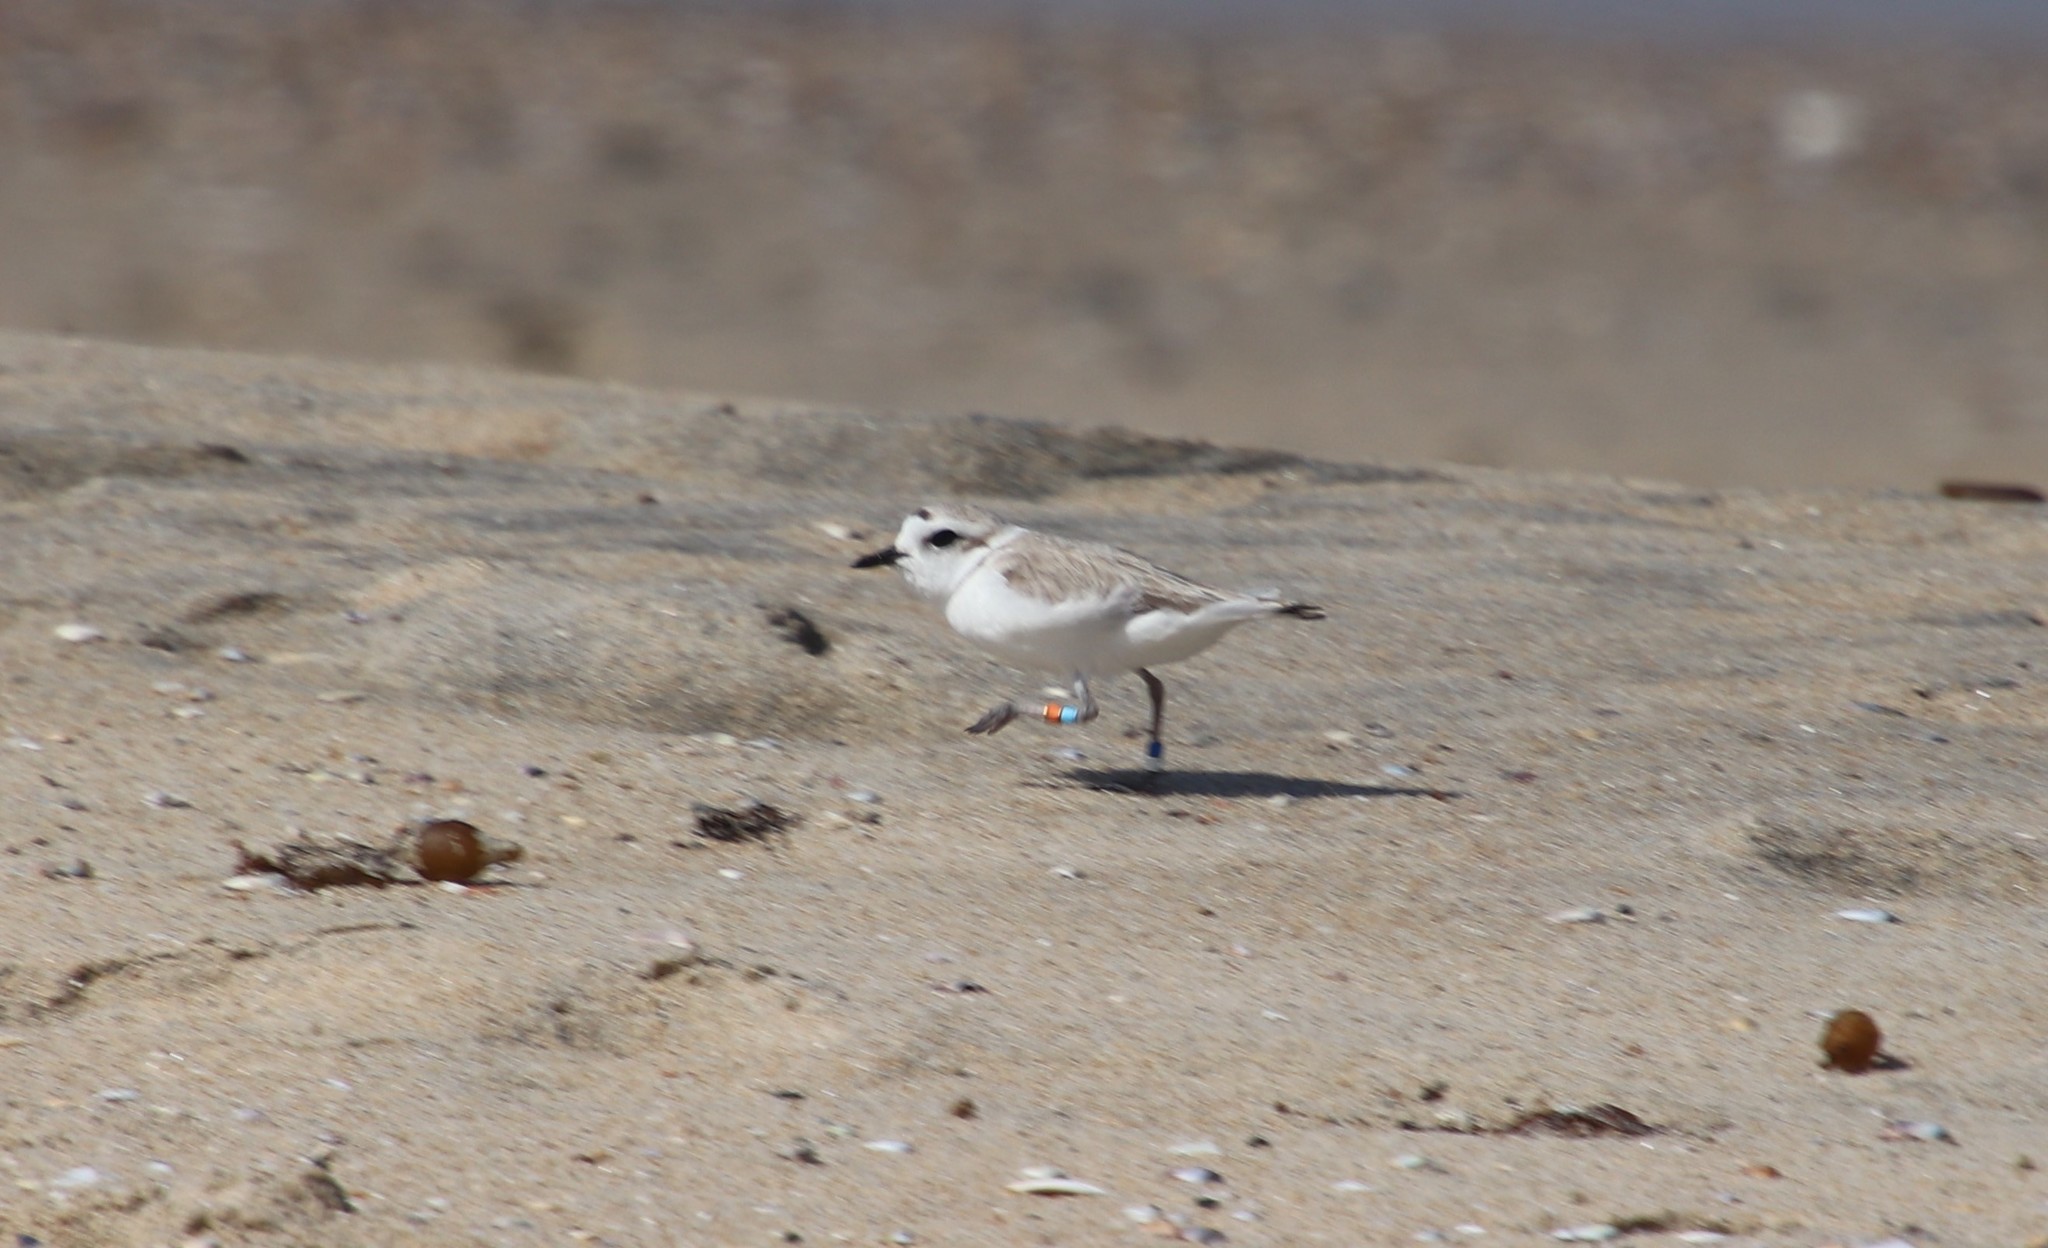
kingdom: Animalia
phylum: Chordata
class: Aves
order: Charadriiformes
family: Charadriidae
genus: Anarhynchus
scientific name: Anarhynchus
